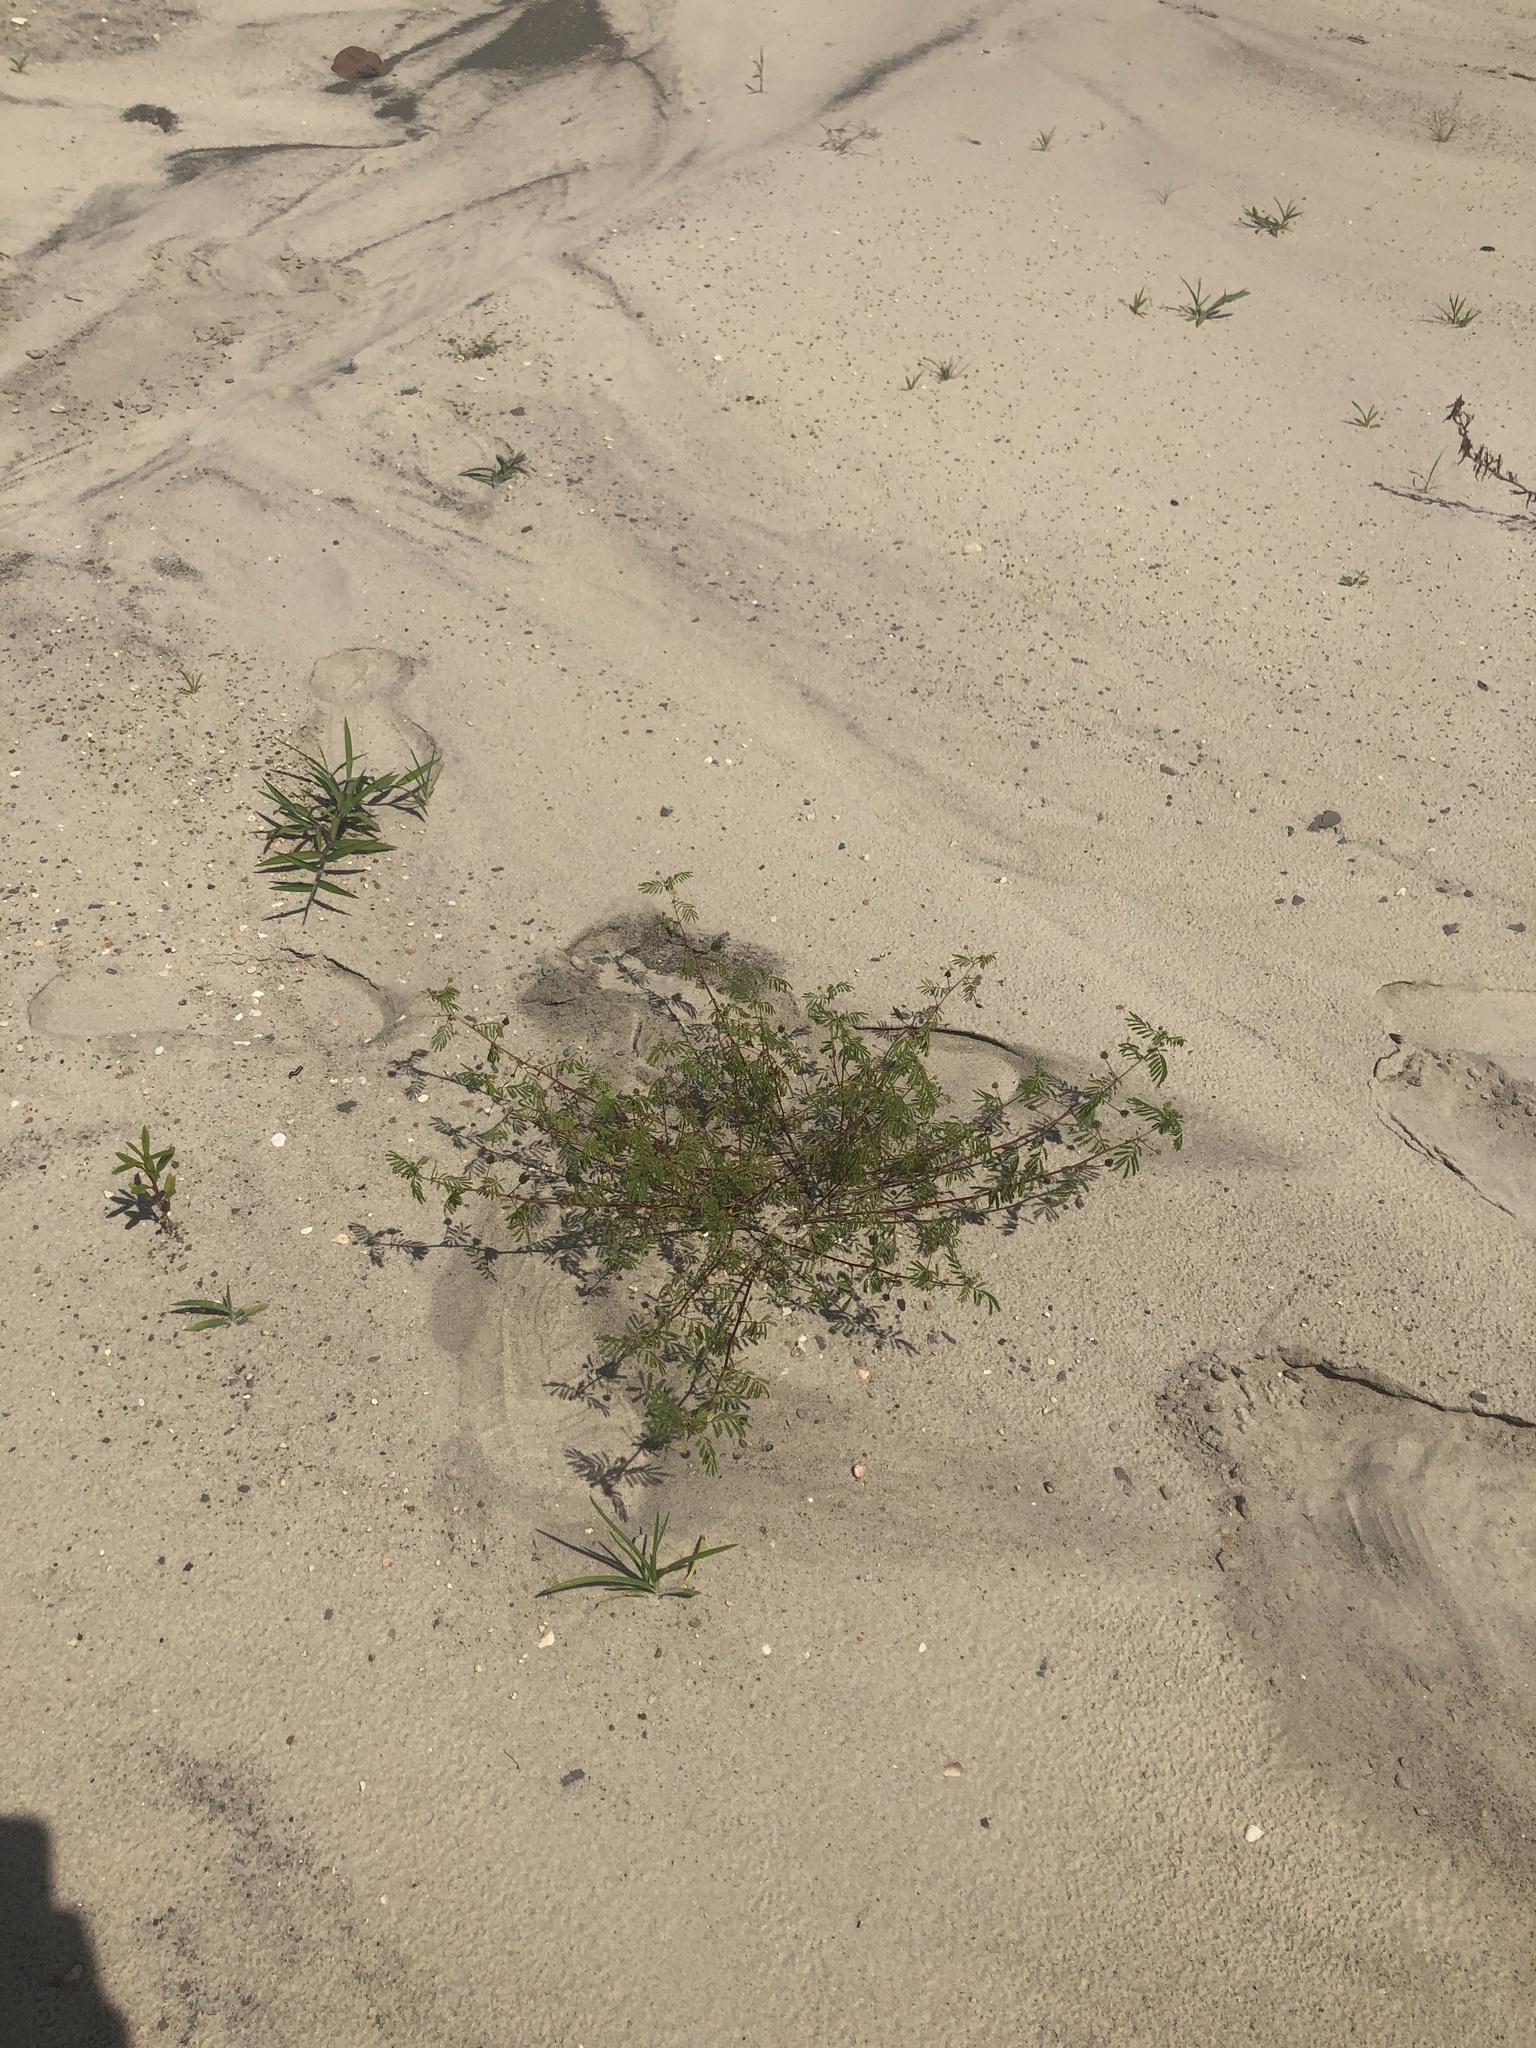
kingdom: Plantae
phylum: Tracheophyta
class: Magnoliopsida
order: Fabales
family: Fabaceae
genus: Desmanthus
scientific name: Desmanthus illinoensis
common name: Illinois bundle-flower
